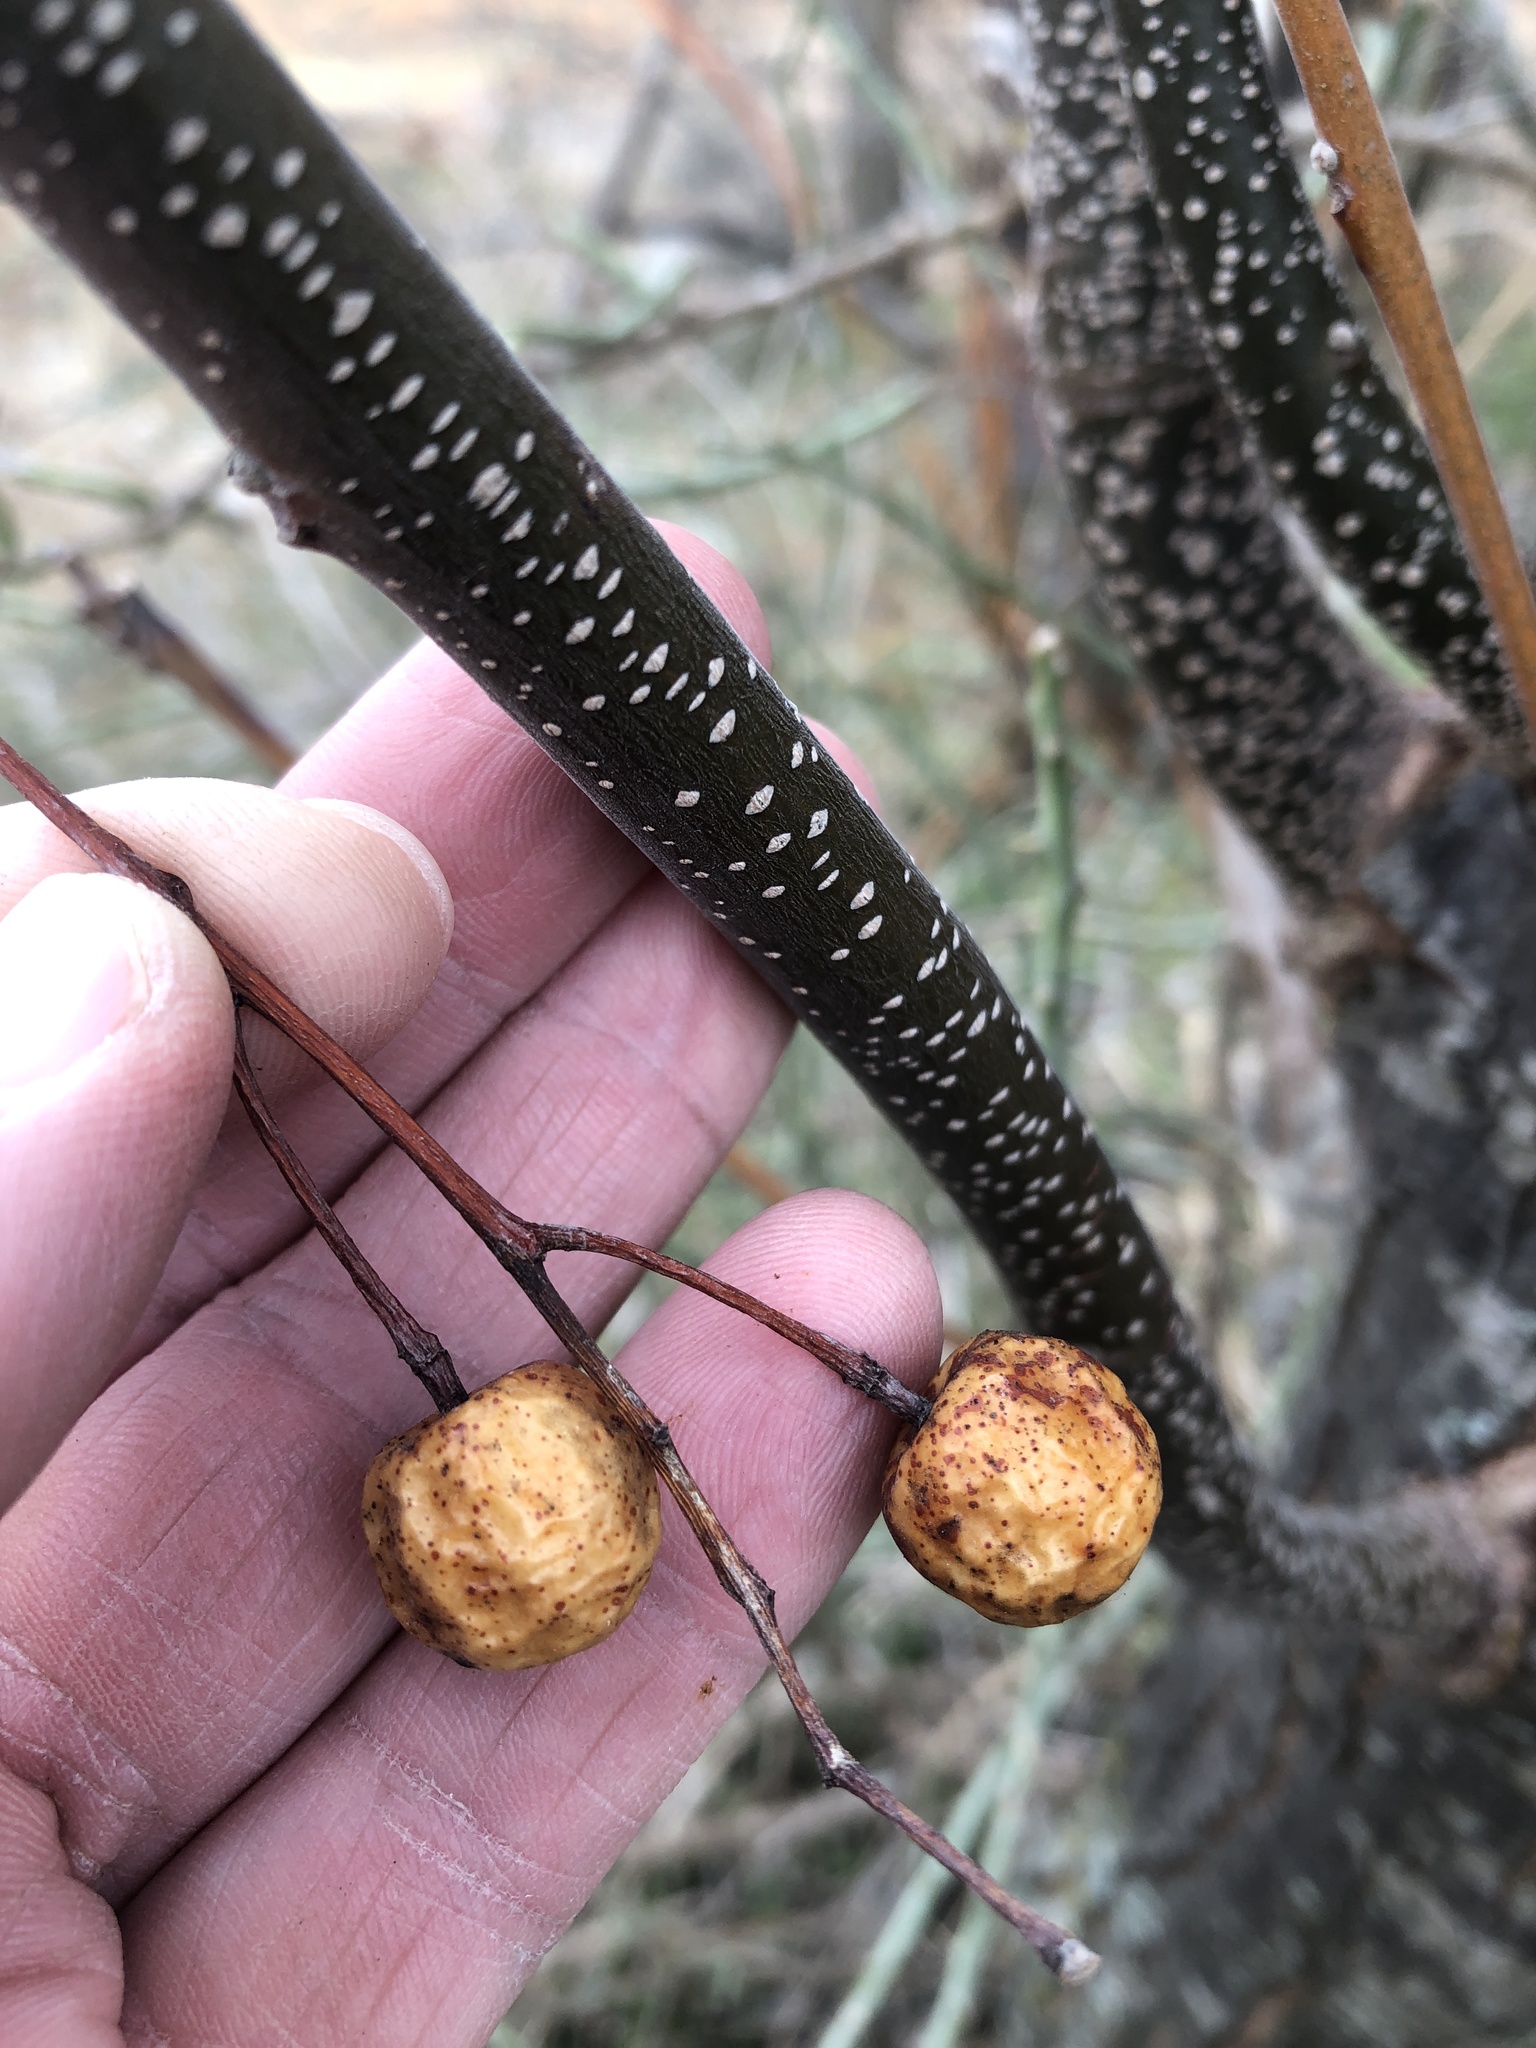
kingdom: Plantae
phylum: Tracheophyta
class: Magnoliopsida
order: Sapindales
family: Meliaceae
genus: Melia
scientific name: Melia azedarach
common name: Chinaberrytree
